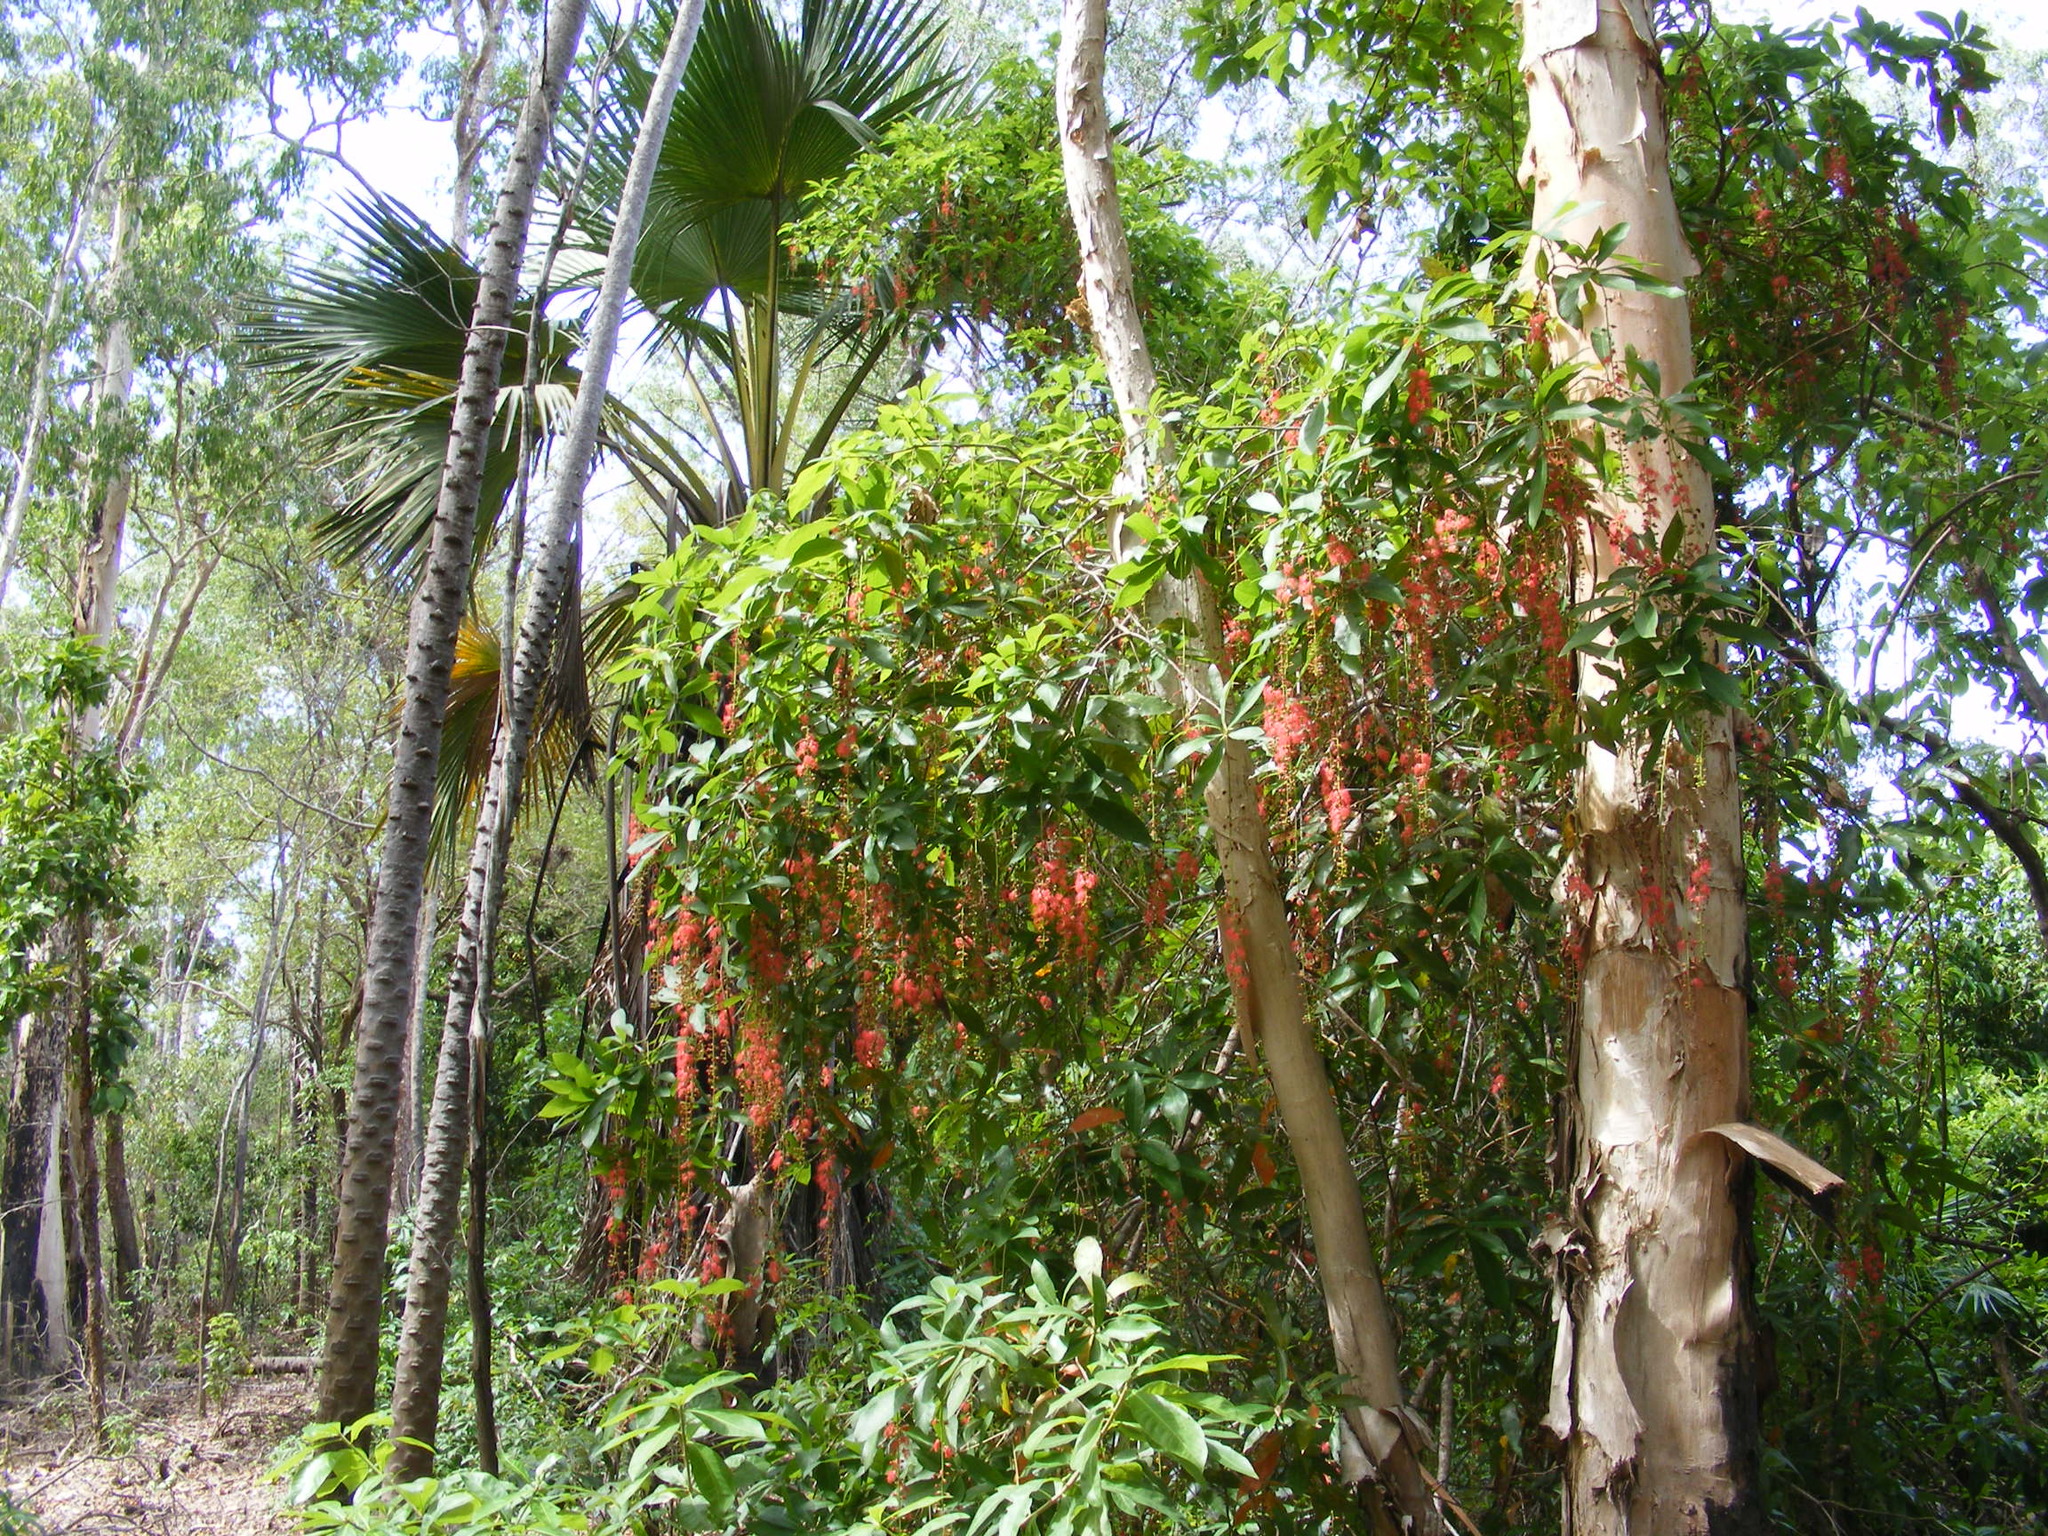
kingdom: Plantae
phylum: Tracheophyta
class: Magnoliopsida
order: Ericales
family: Lecythidaceae
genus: Barringtonia
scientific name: Barringtonia acutangula
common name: Freshwater mangrove
